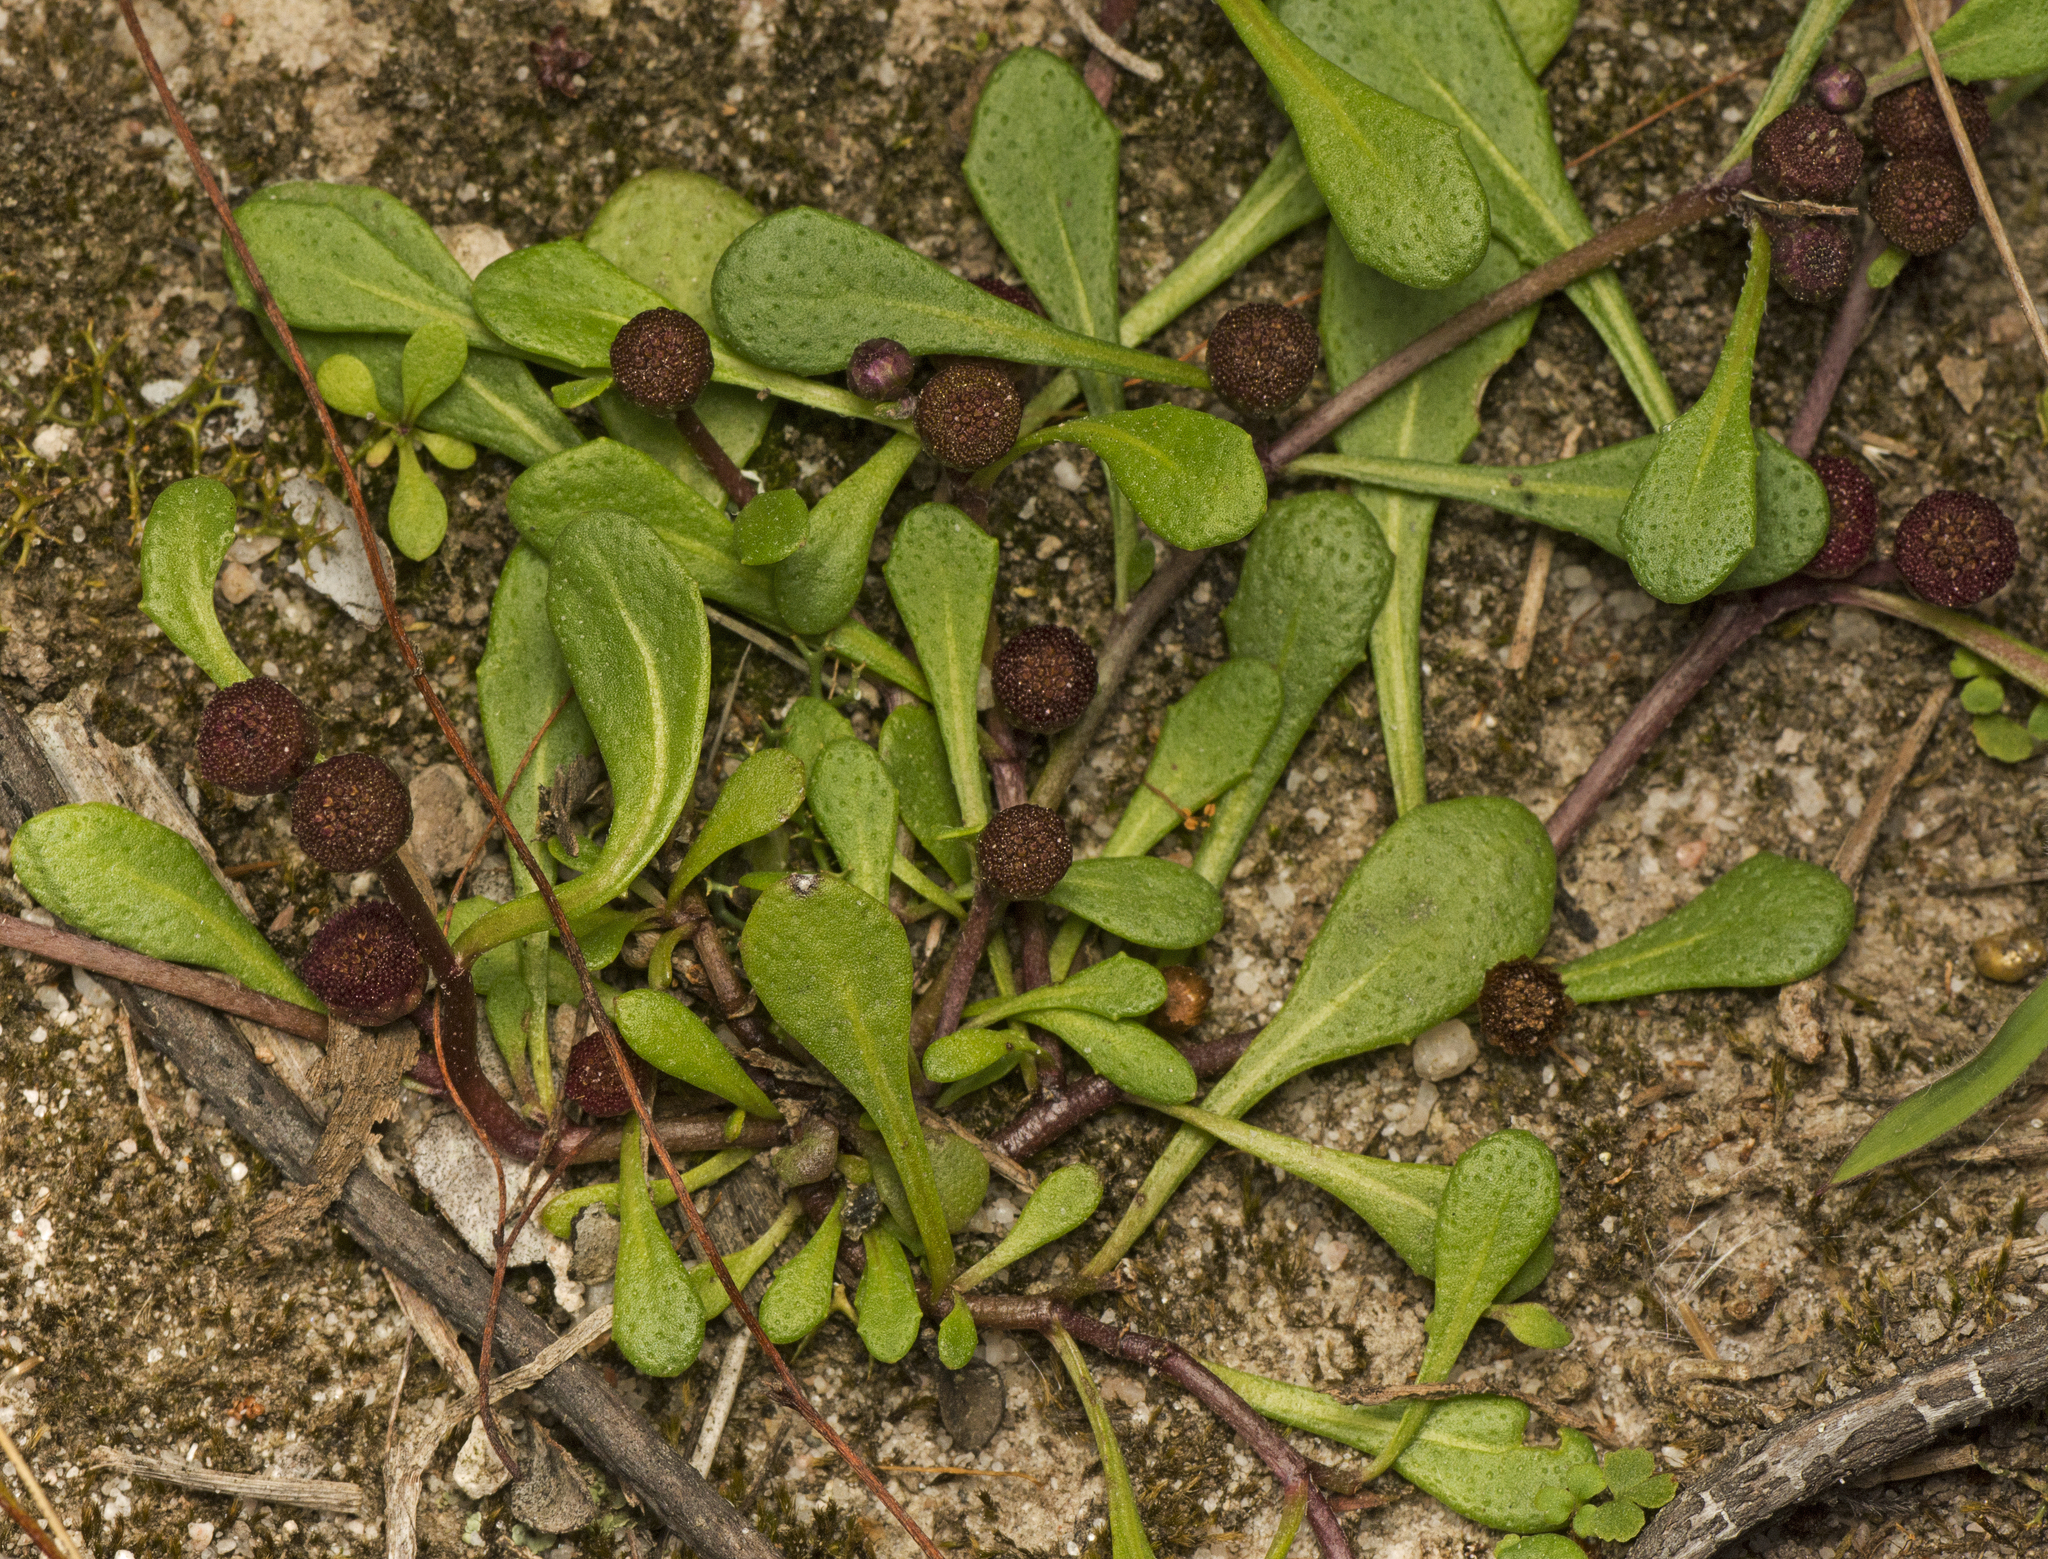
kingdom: Plantae
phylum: Tracheophyta
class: Magnoliopsida
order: Asterales
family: Asteraceae
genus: Sphaeromorphaea
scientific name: Sphaeromorphaea australis
